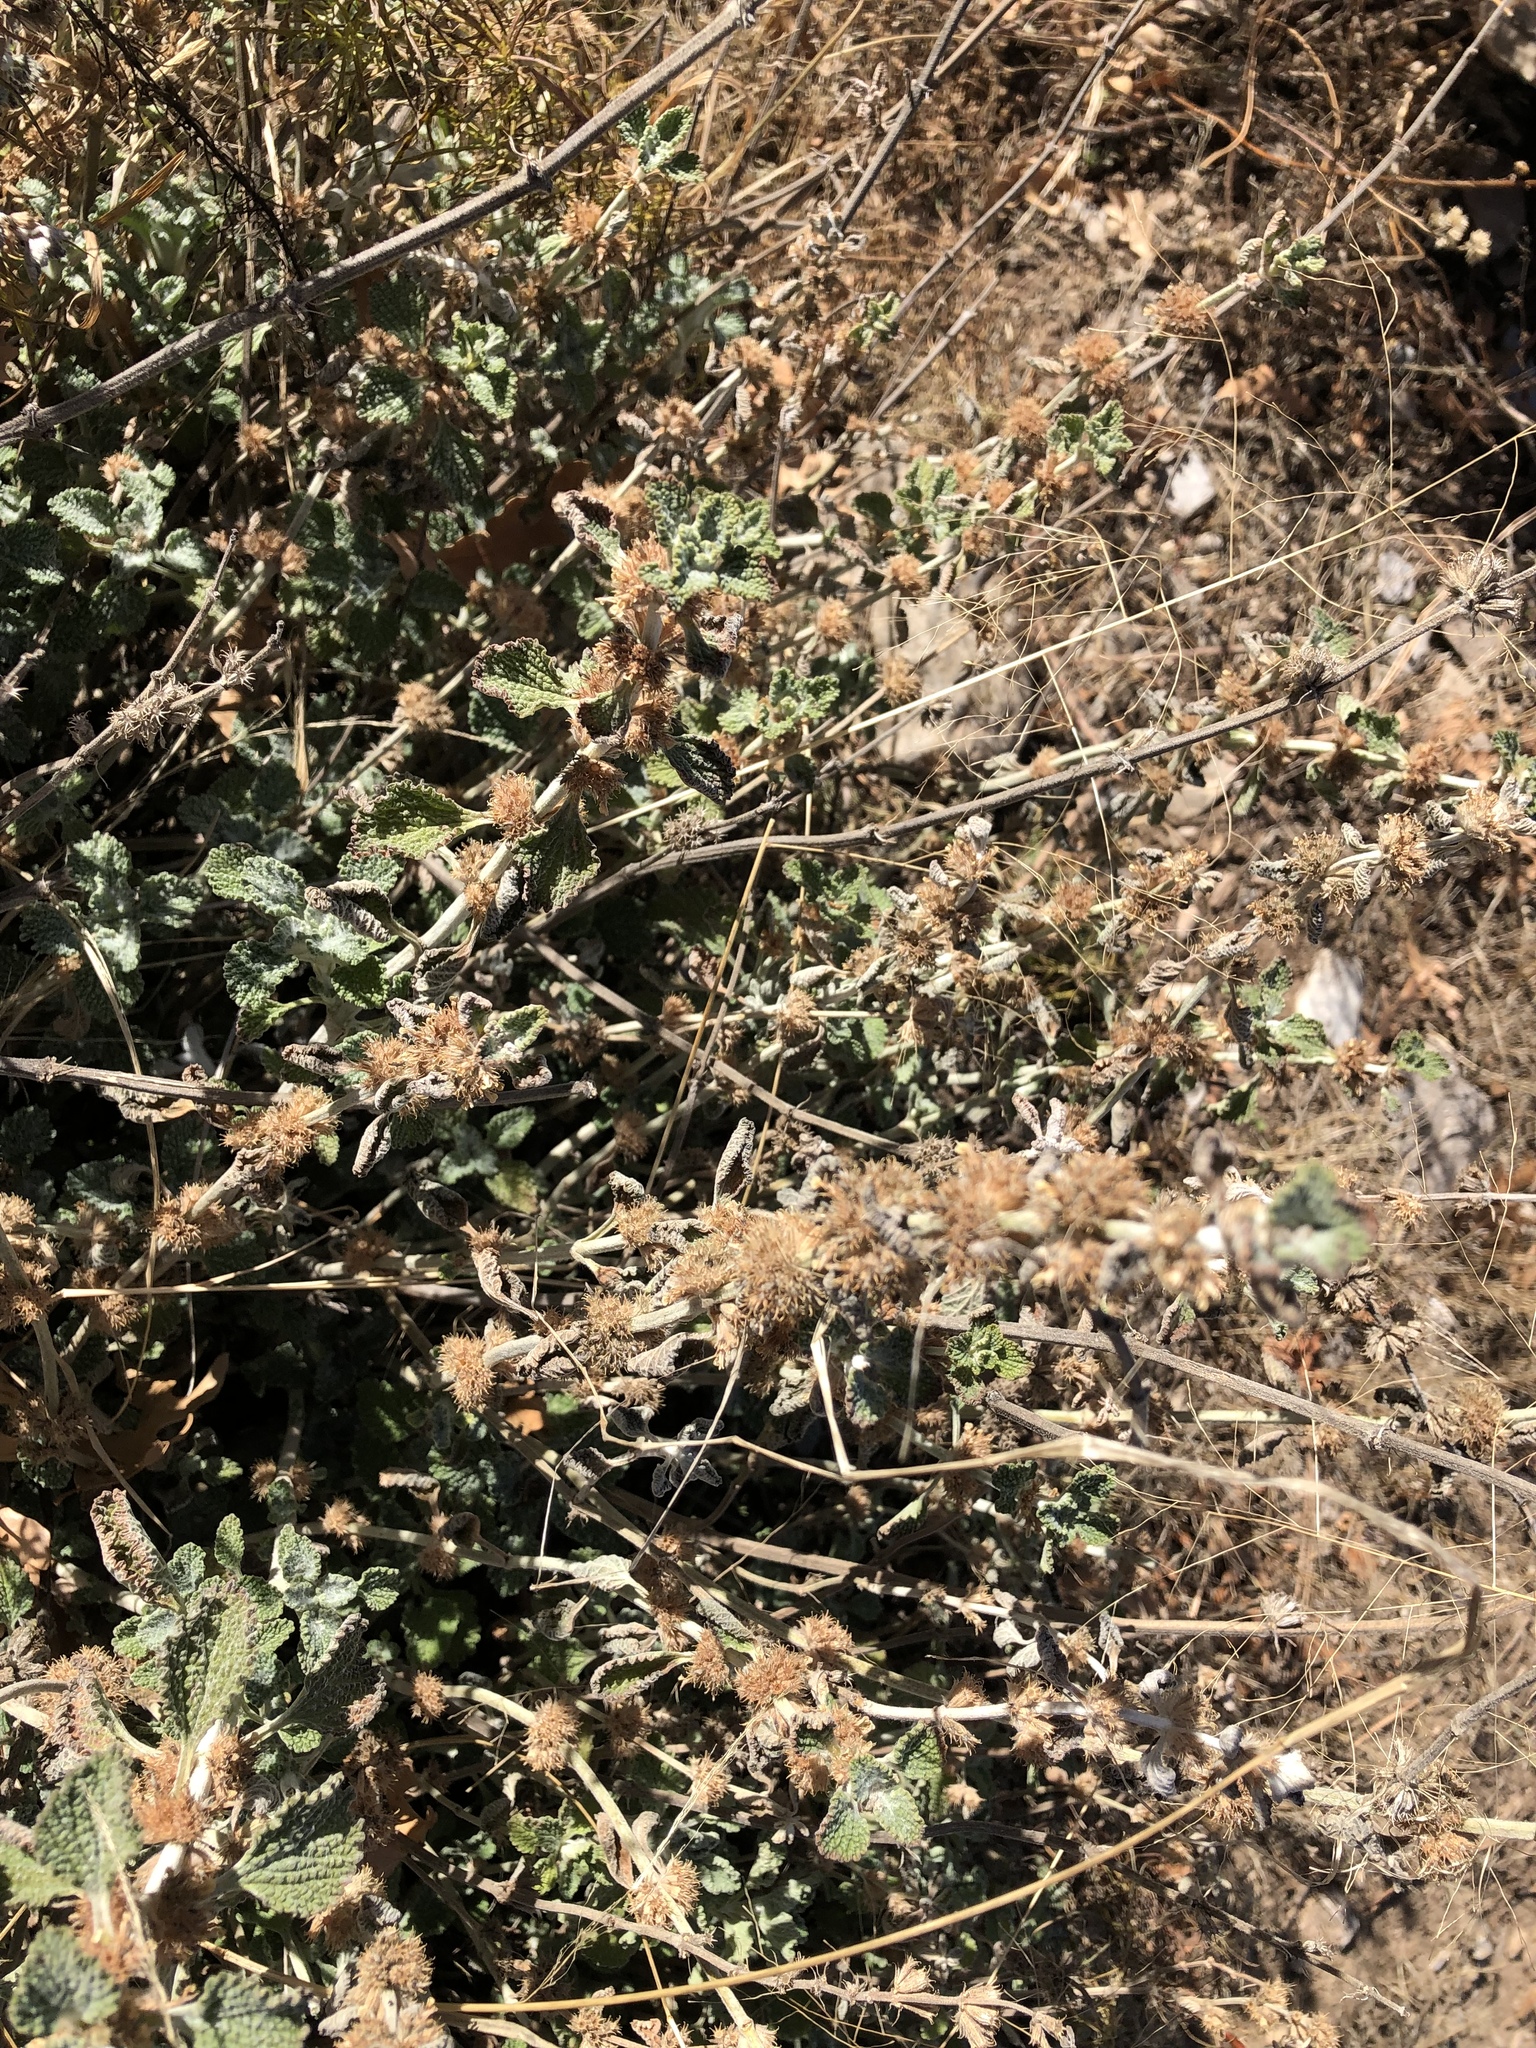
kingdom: Plantae
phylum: Tracheophyta
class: Magnoliopsida
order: Lamiales
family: Lamiaceae
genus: Marrubium
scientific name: Marrubium vulgare
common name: Horehound
